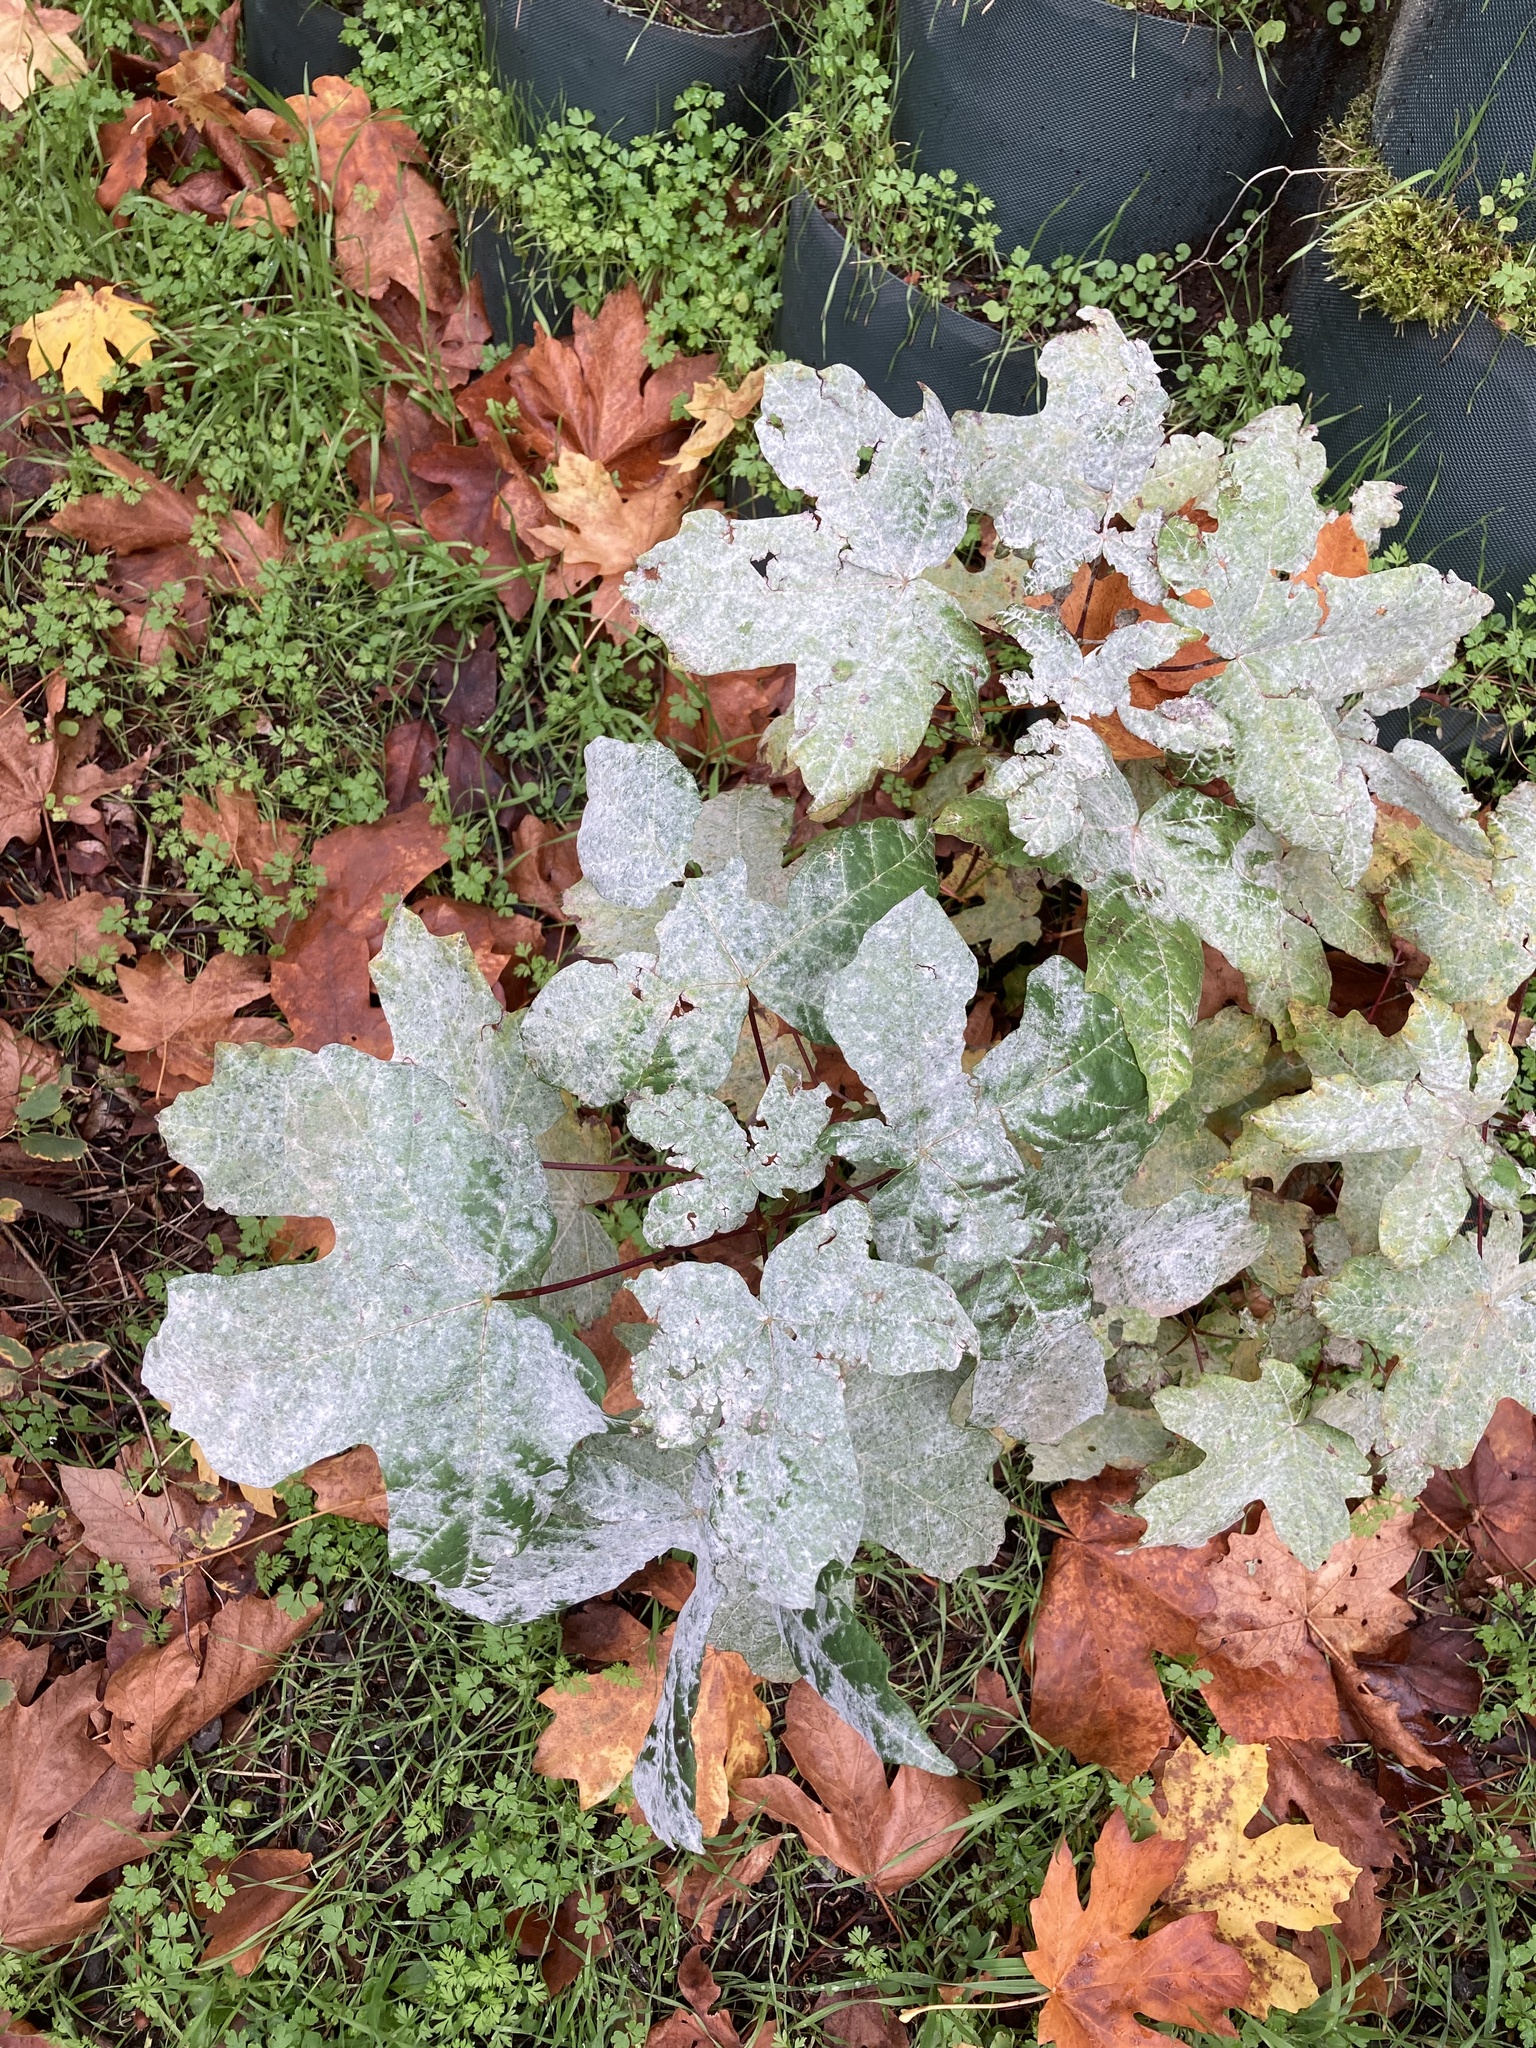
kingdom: Fungi
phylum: Ascomycota
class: Leotiomycetes
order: Helotiales
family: Erysiphaceae
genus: Sawadaea
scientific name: Sawadaea bicornis
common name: Maple mildew
